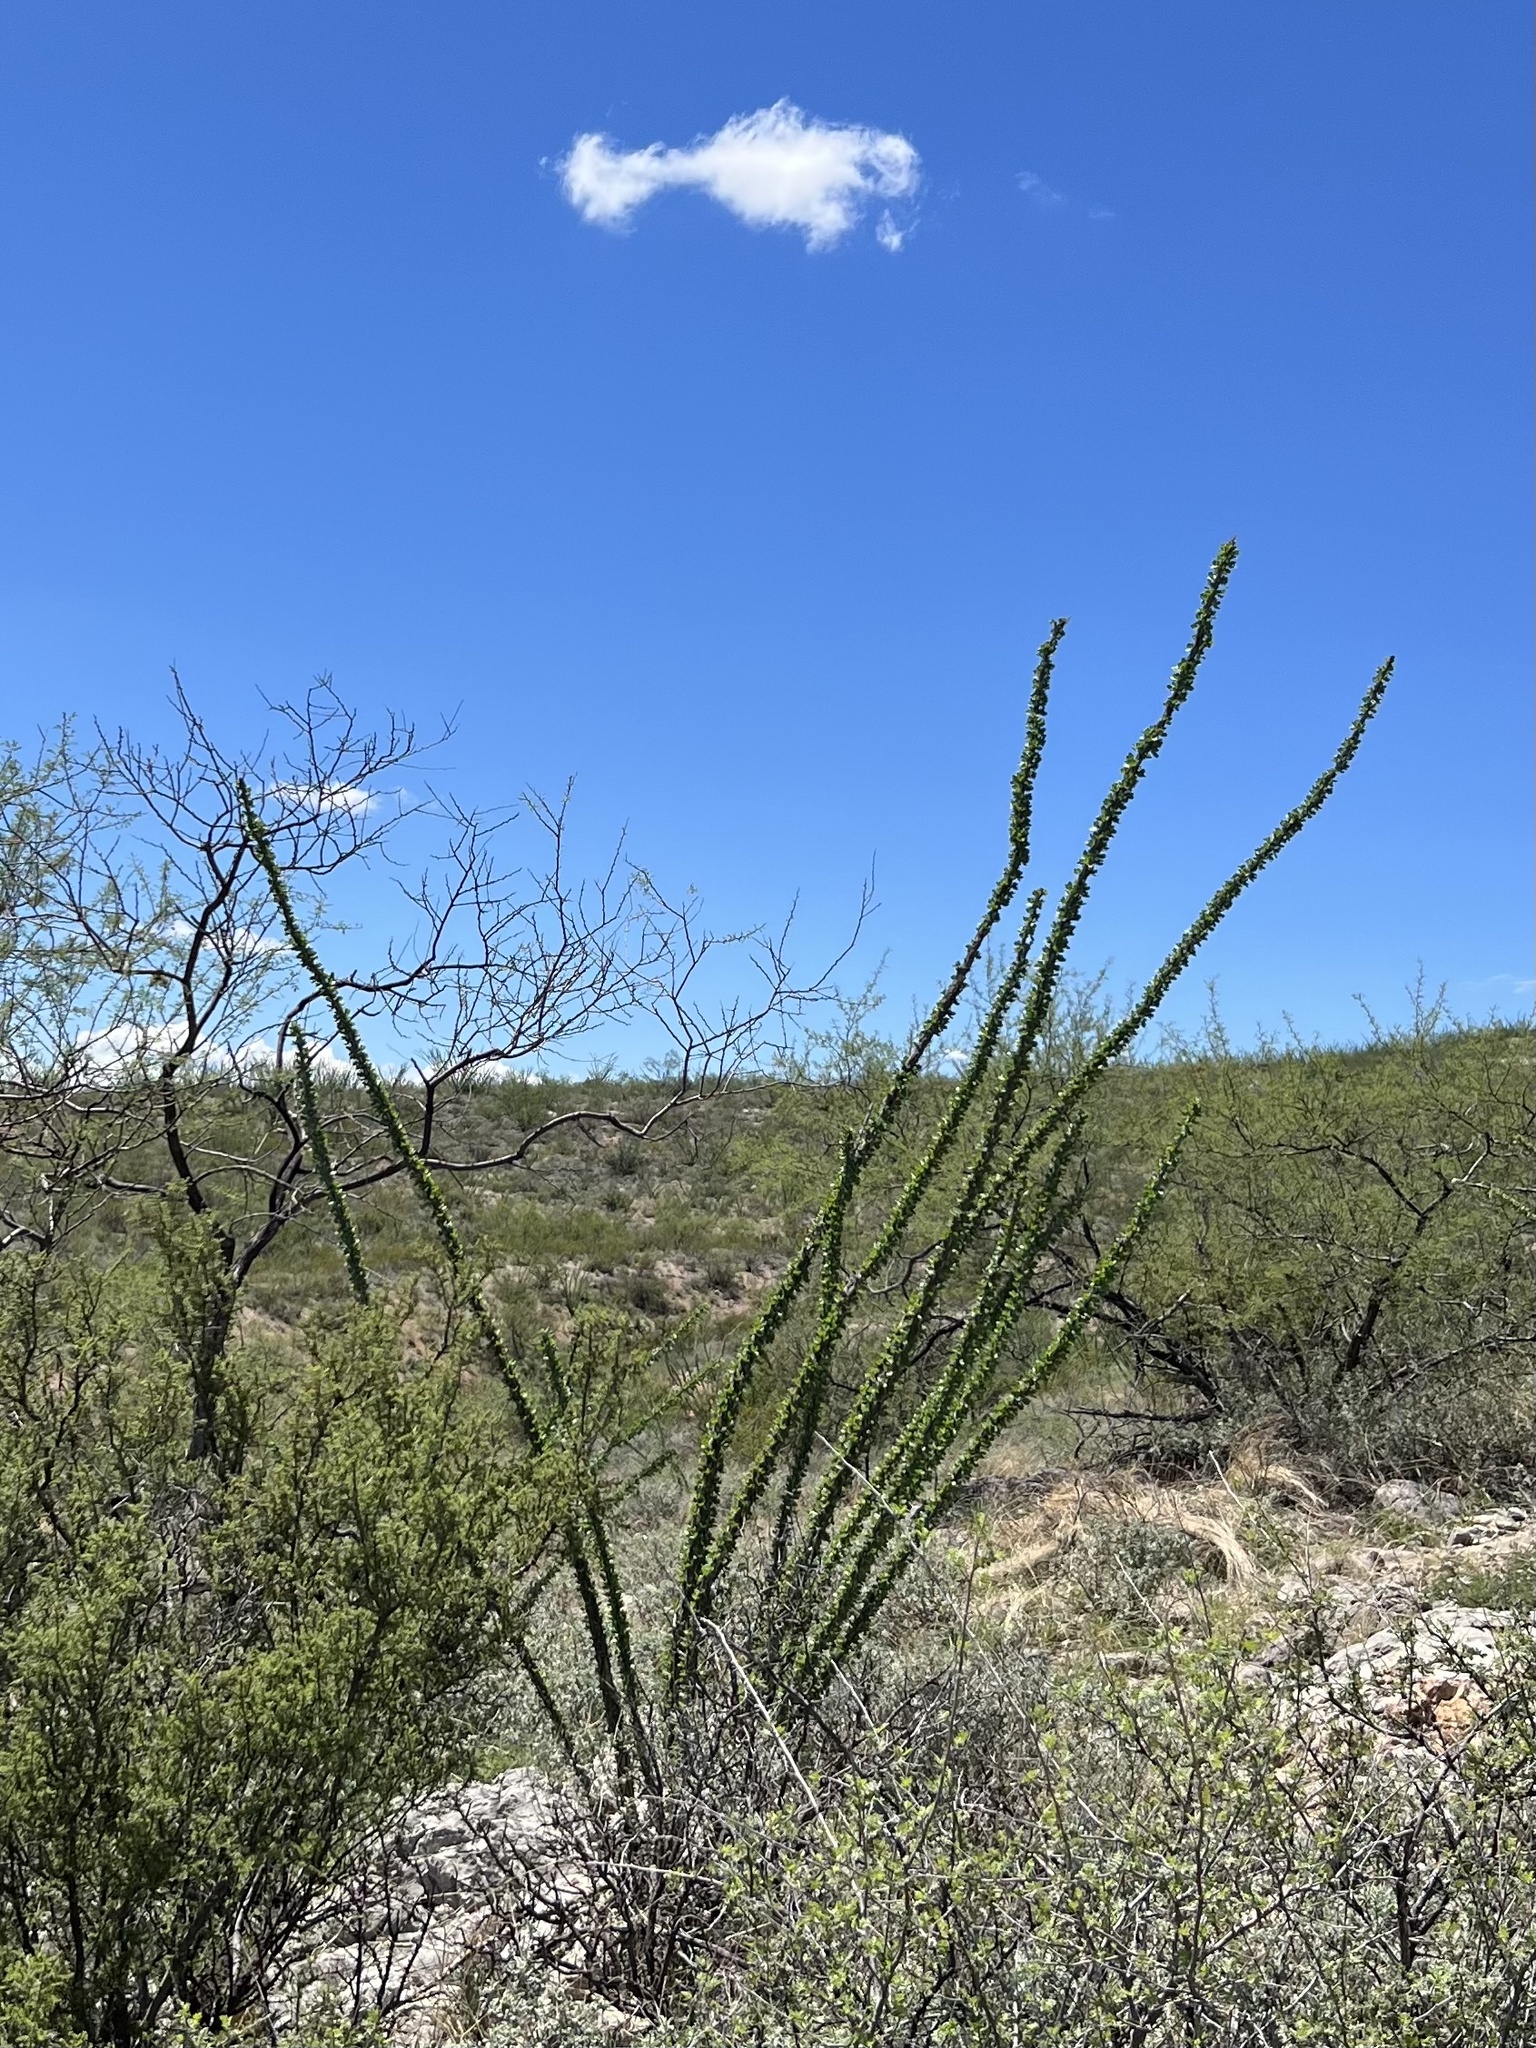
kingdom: Plantae
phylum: Tracheophyta
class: Magnoliopsida
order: Ericales
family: Fouquieriaceae
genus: Fouquieria
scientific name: Fouquieria splendens
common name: Vine-cactus
